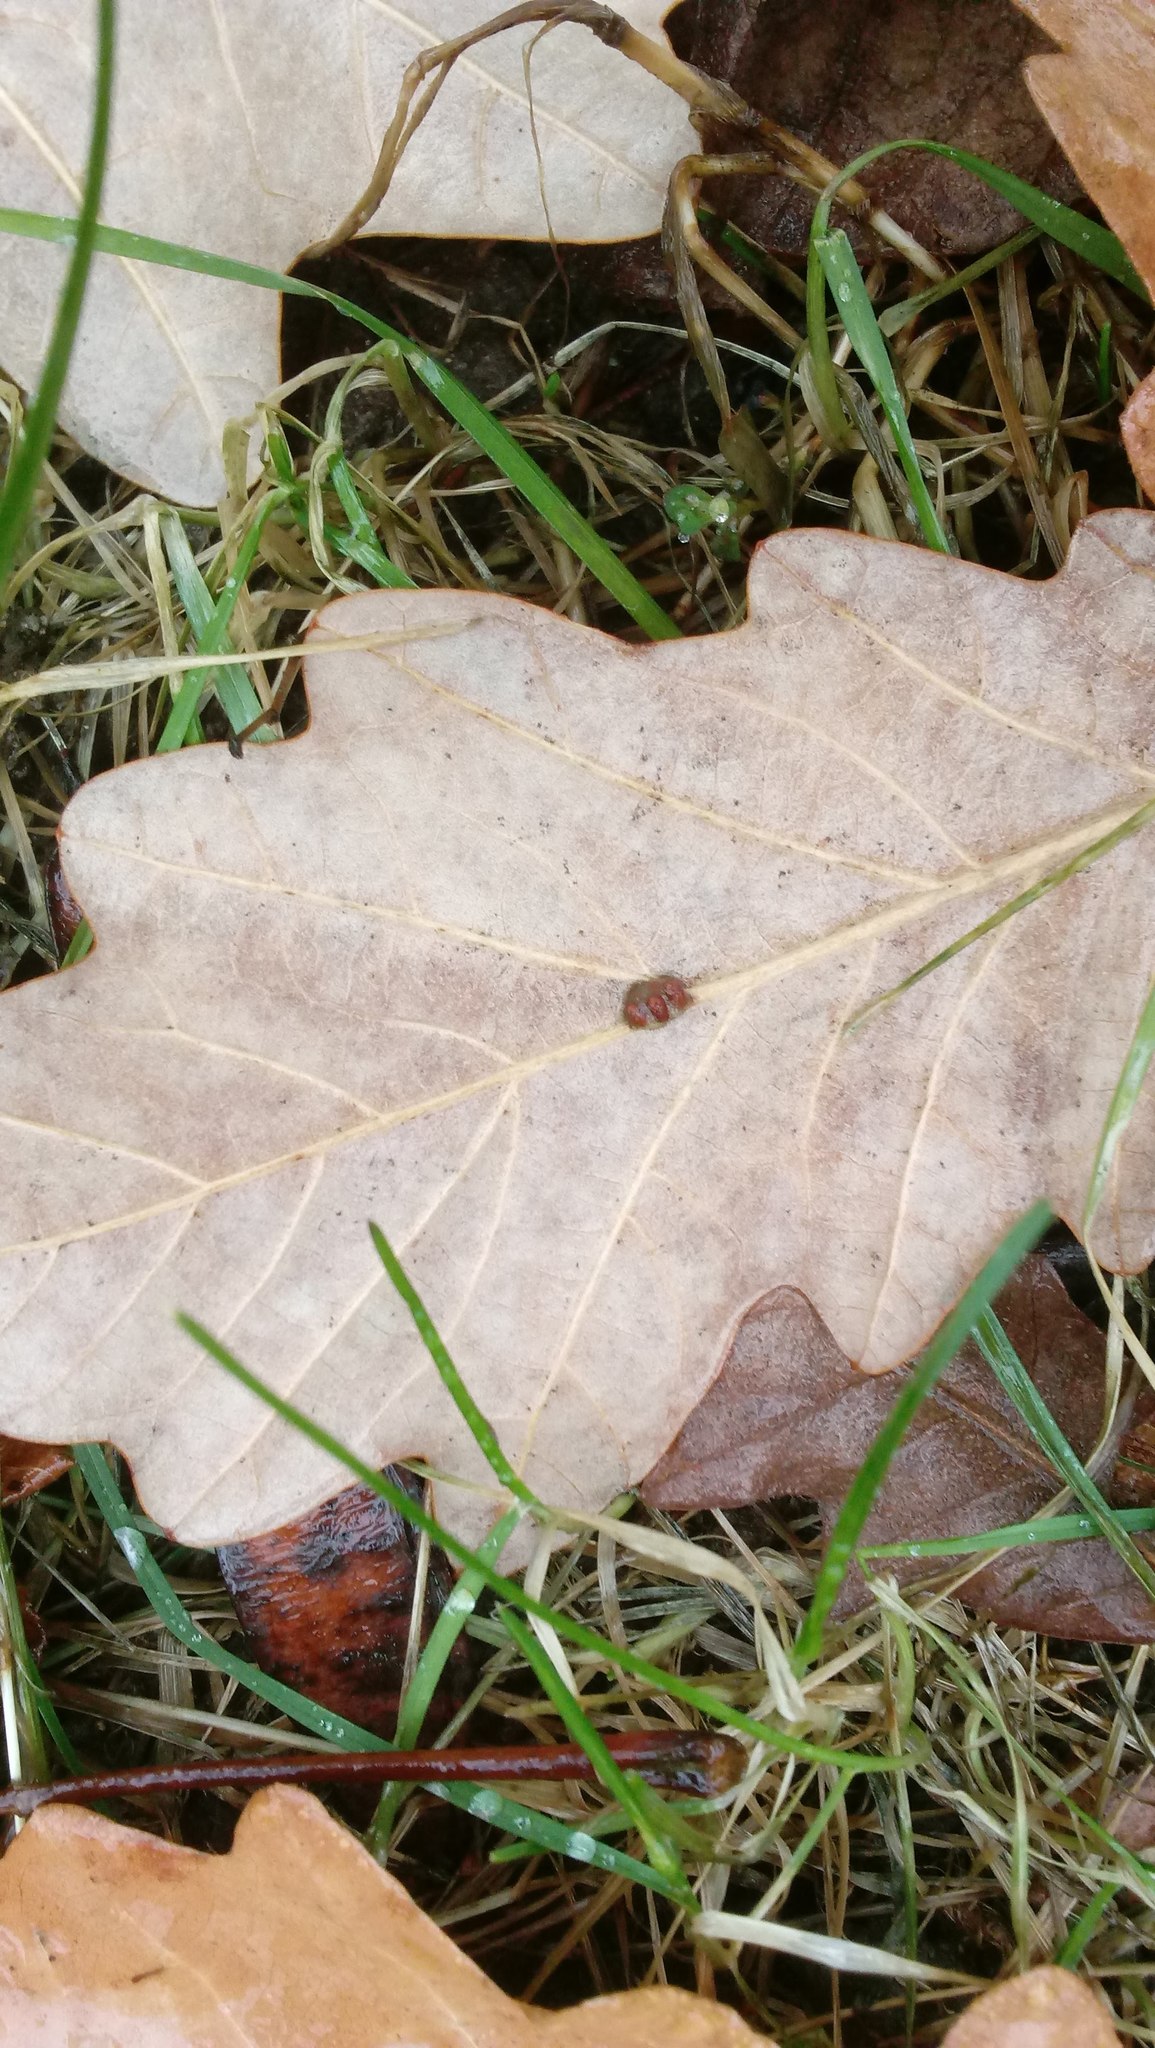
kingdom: Animalia
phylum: Arthropoda
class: Insecta
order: Hymenoptera
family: Cynipidae
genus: Andricus
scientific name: Andricus Druon ignotum
